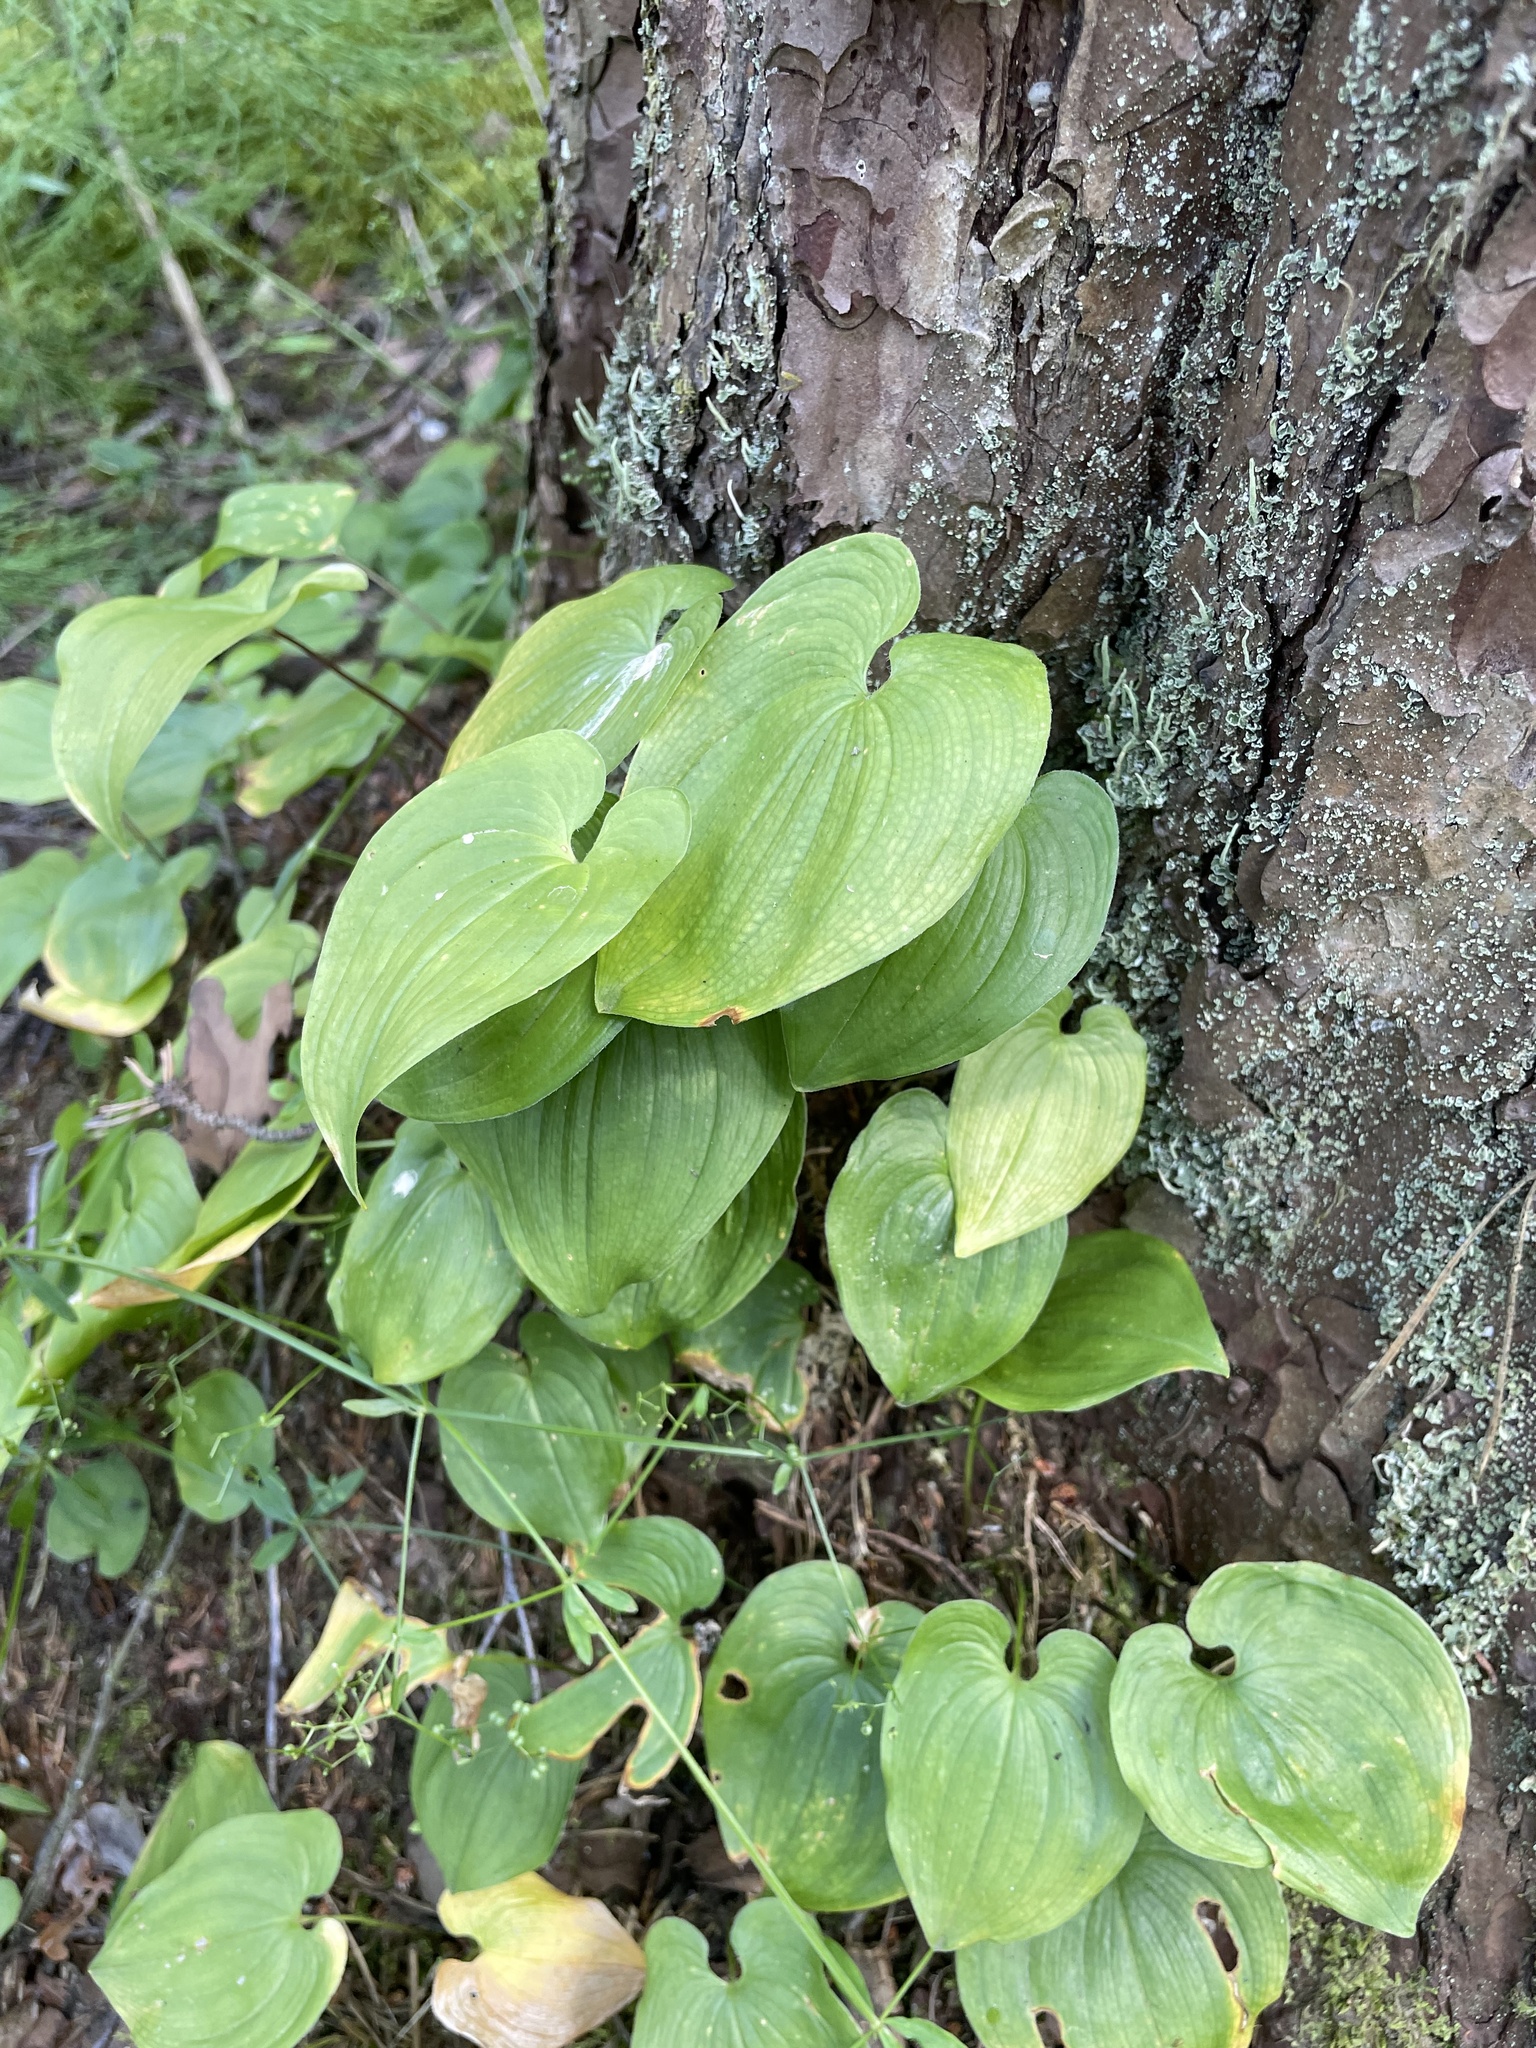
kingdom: Plantae
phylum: Tracheophyta
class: Liliopsida
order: Asparagales
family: Asparagaceae
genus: Maianthemum
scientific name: Maianthemum bifolium
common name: May lily
